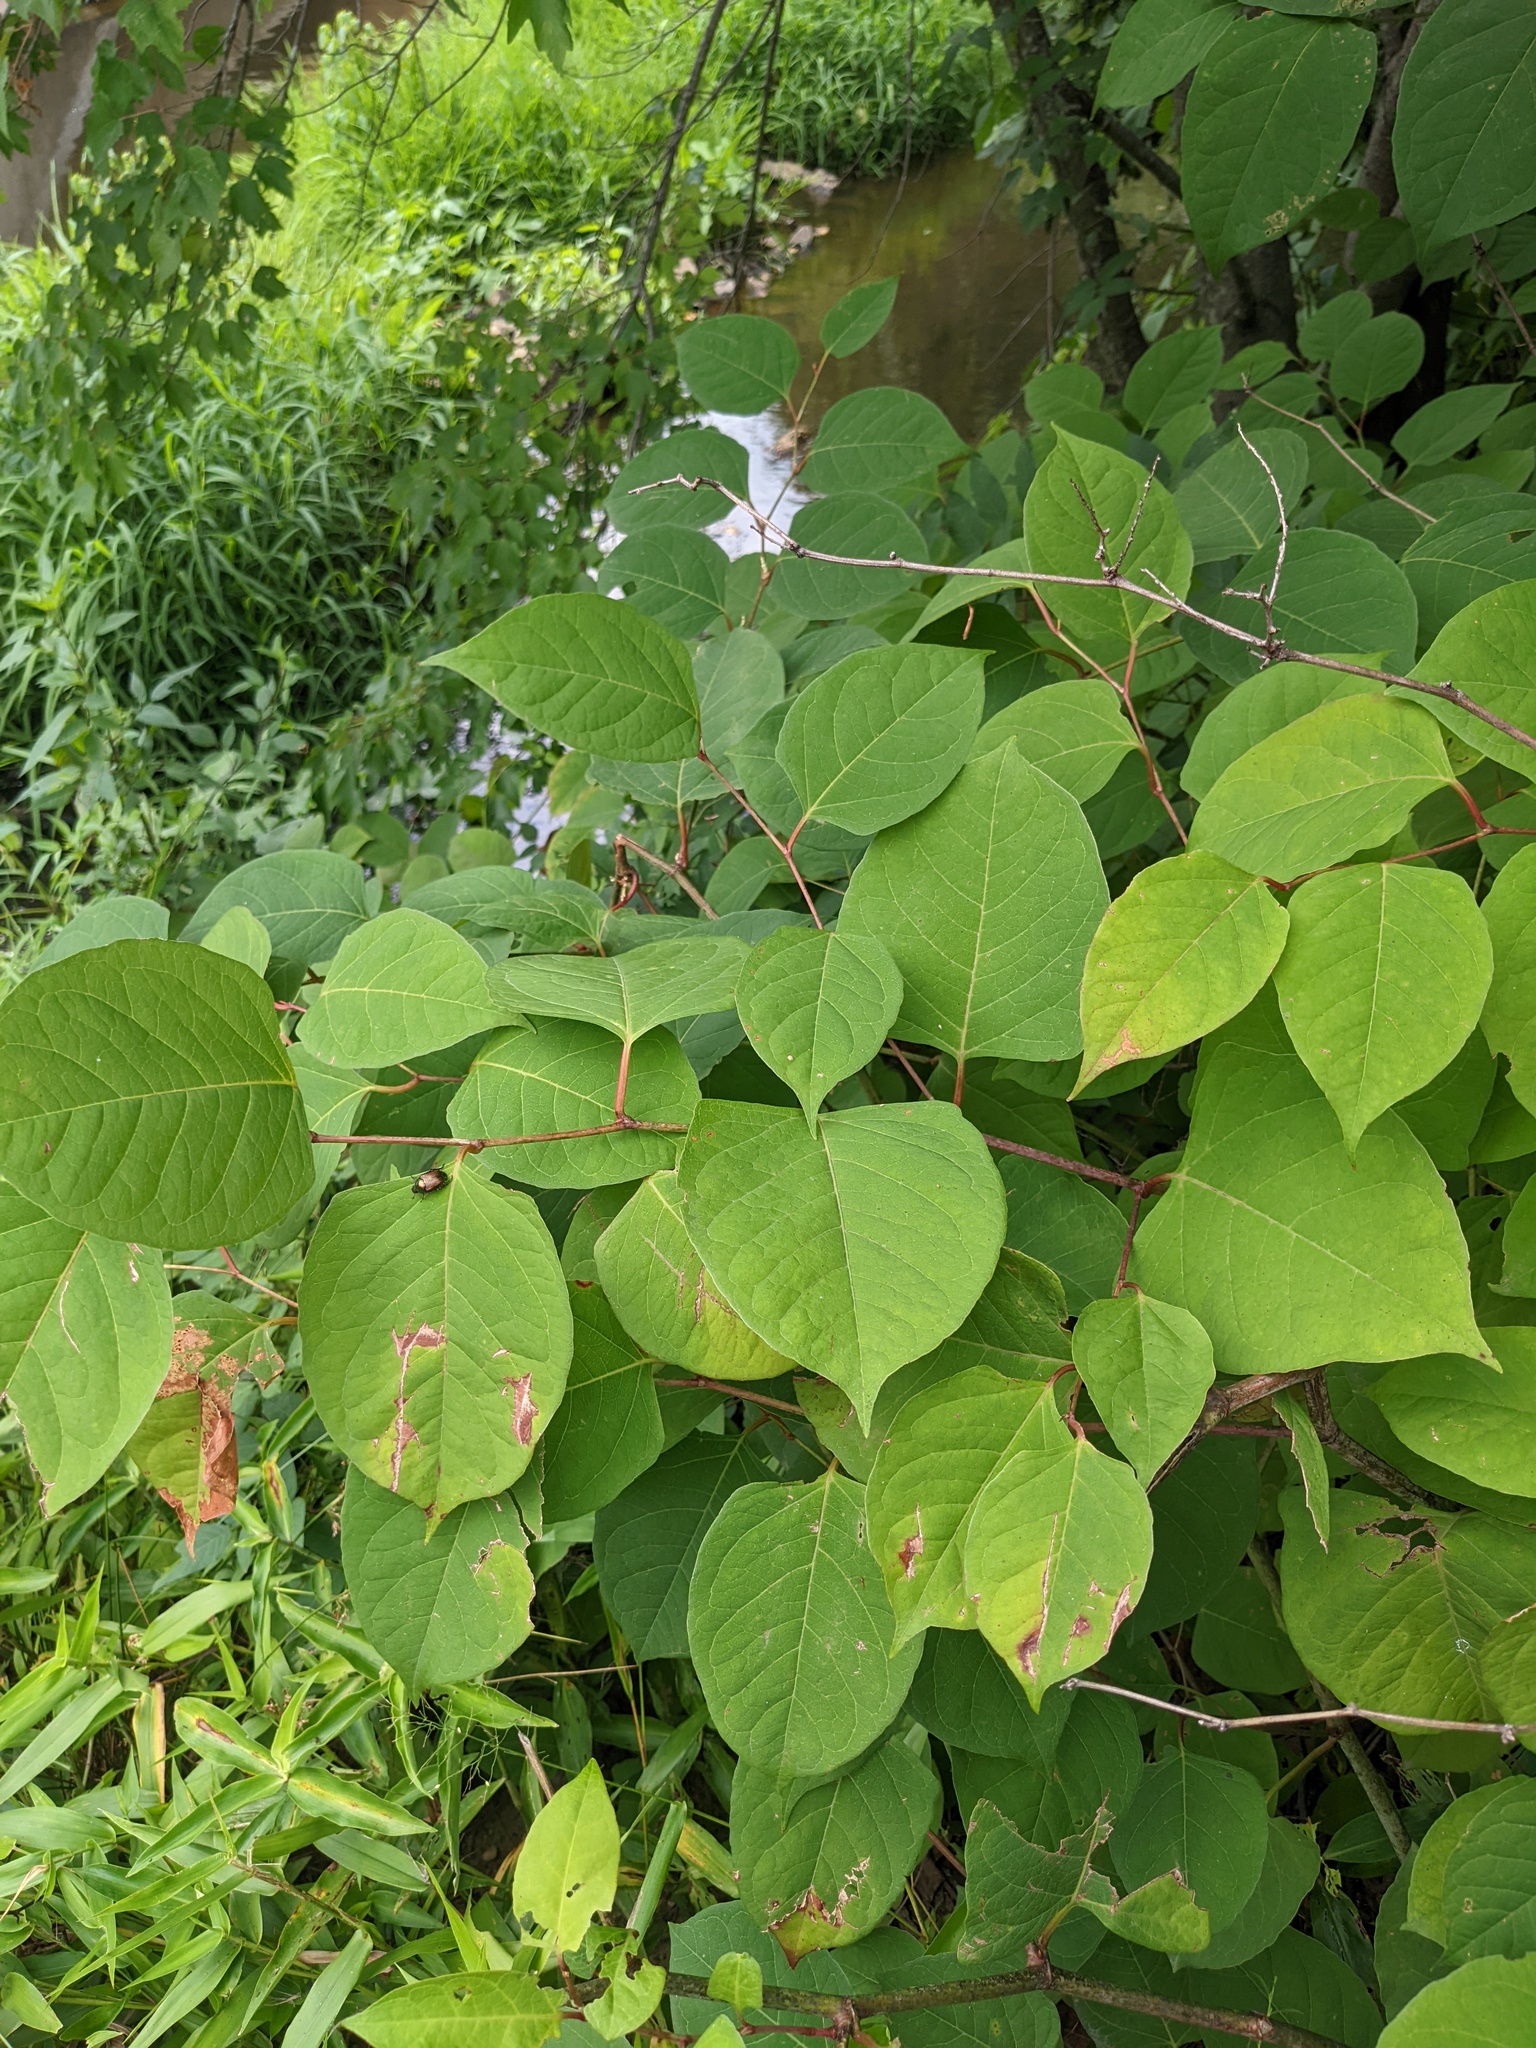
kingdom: Plantae
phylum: Tracheophyta
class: Magnoliopsida
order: Caryophyllales
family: Polygonaceae
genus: Reynoutria
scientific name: Reynoutria japonica
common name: Japanese knotweed
